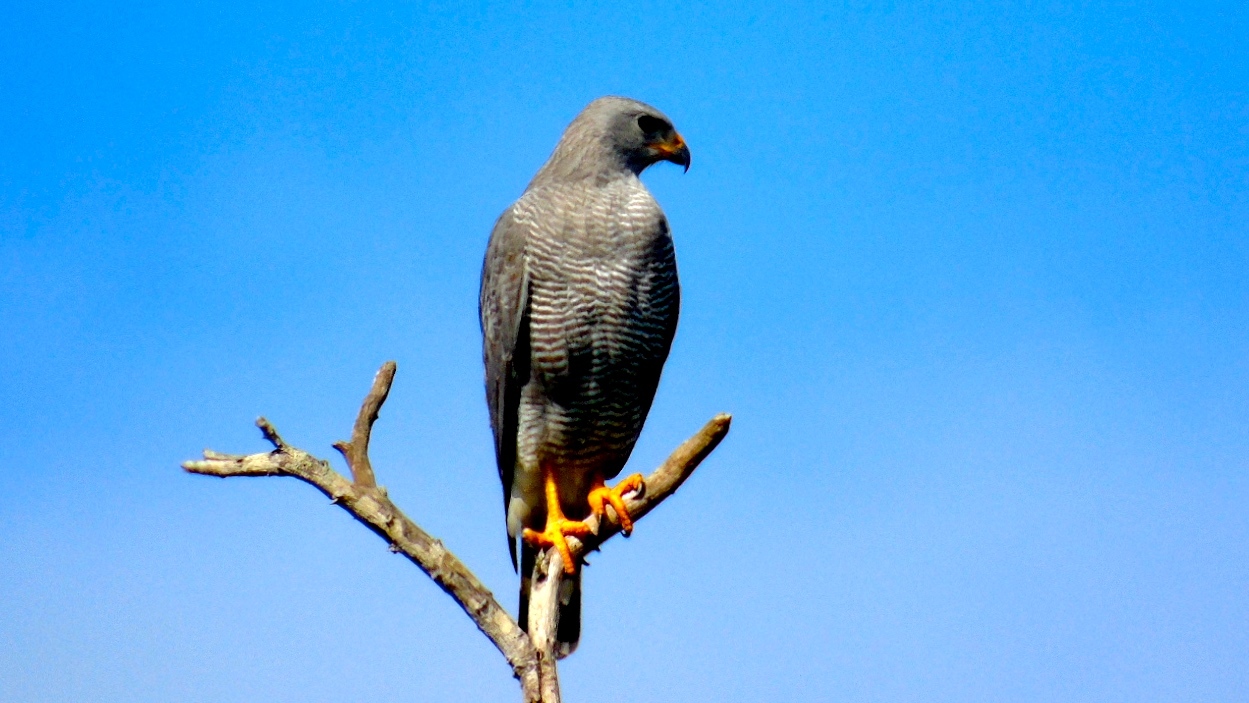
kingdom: Animalia
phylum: Chordata
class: Aves
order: Accipitriformes
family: Accipitridae
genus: Buteo
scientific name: Buteo nitidus
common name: Grey-lined hawk
